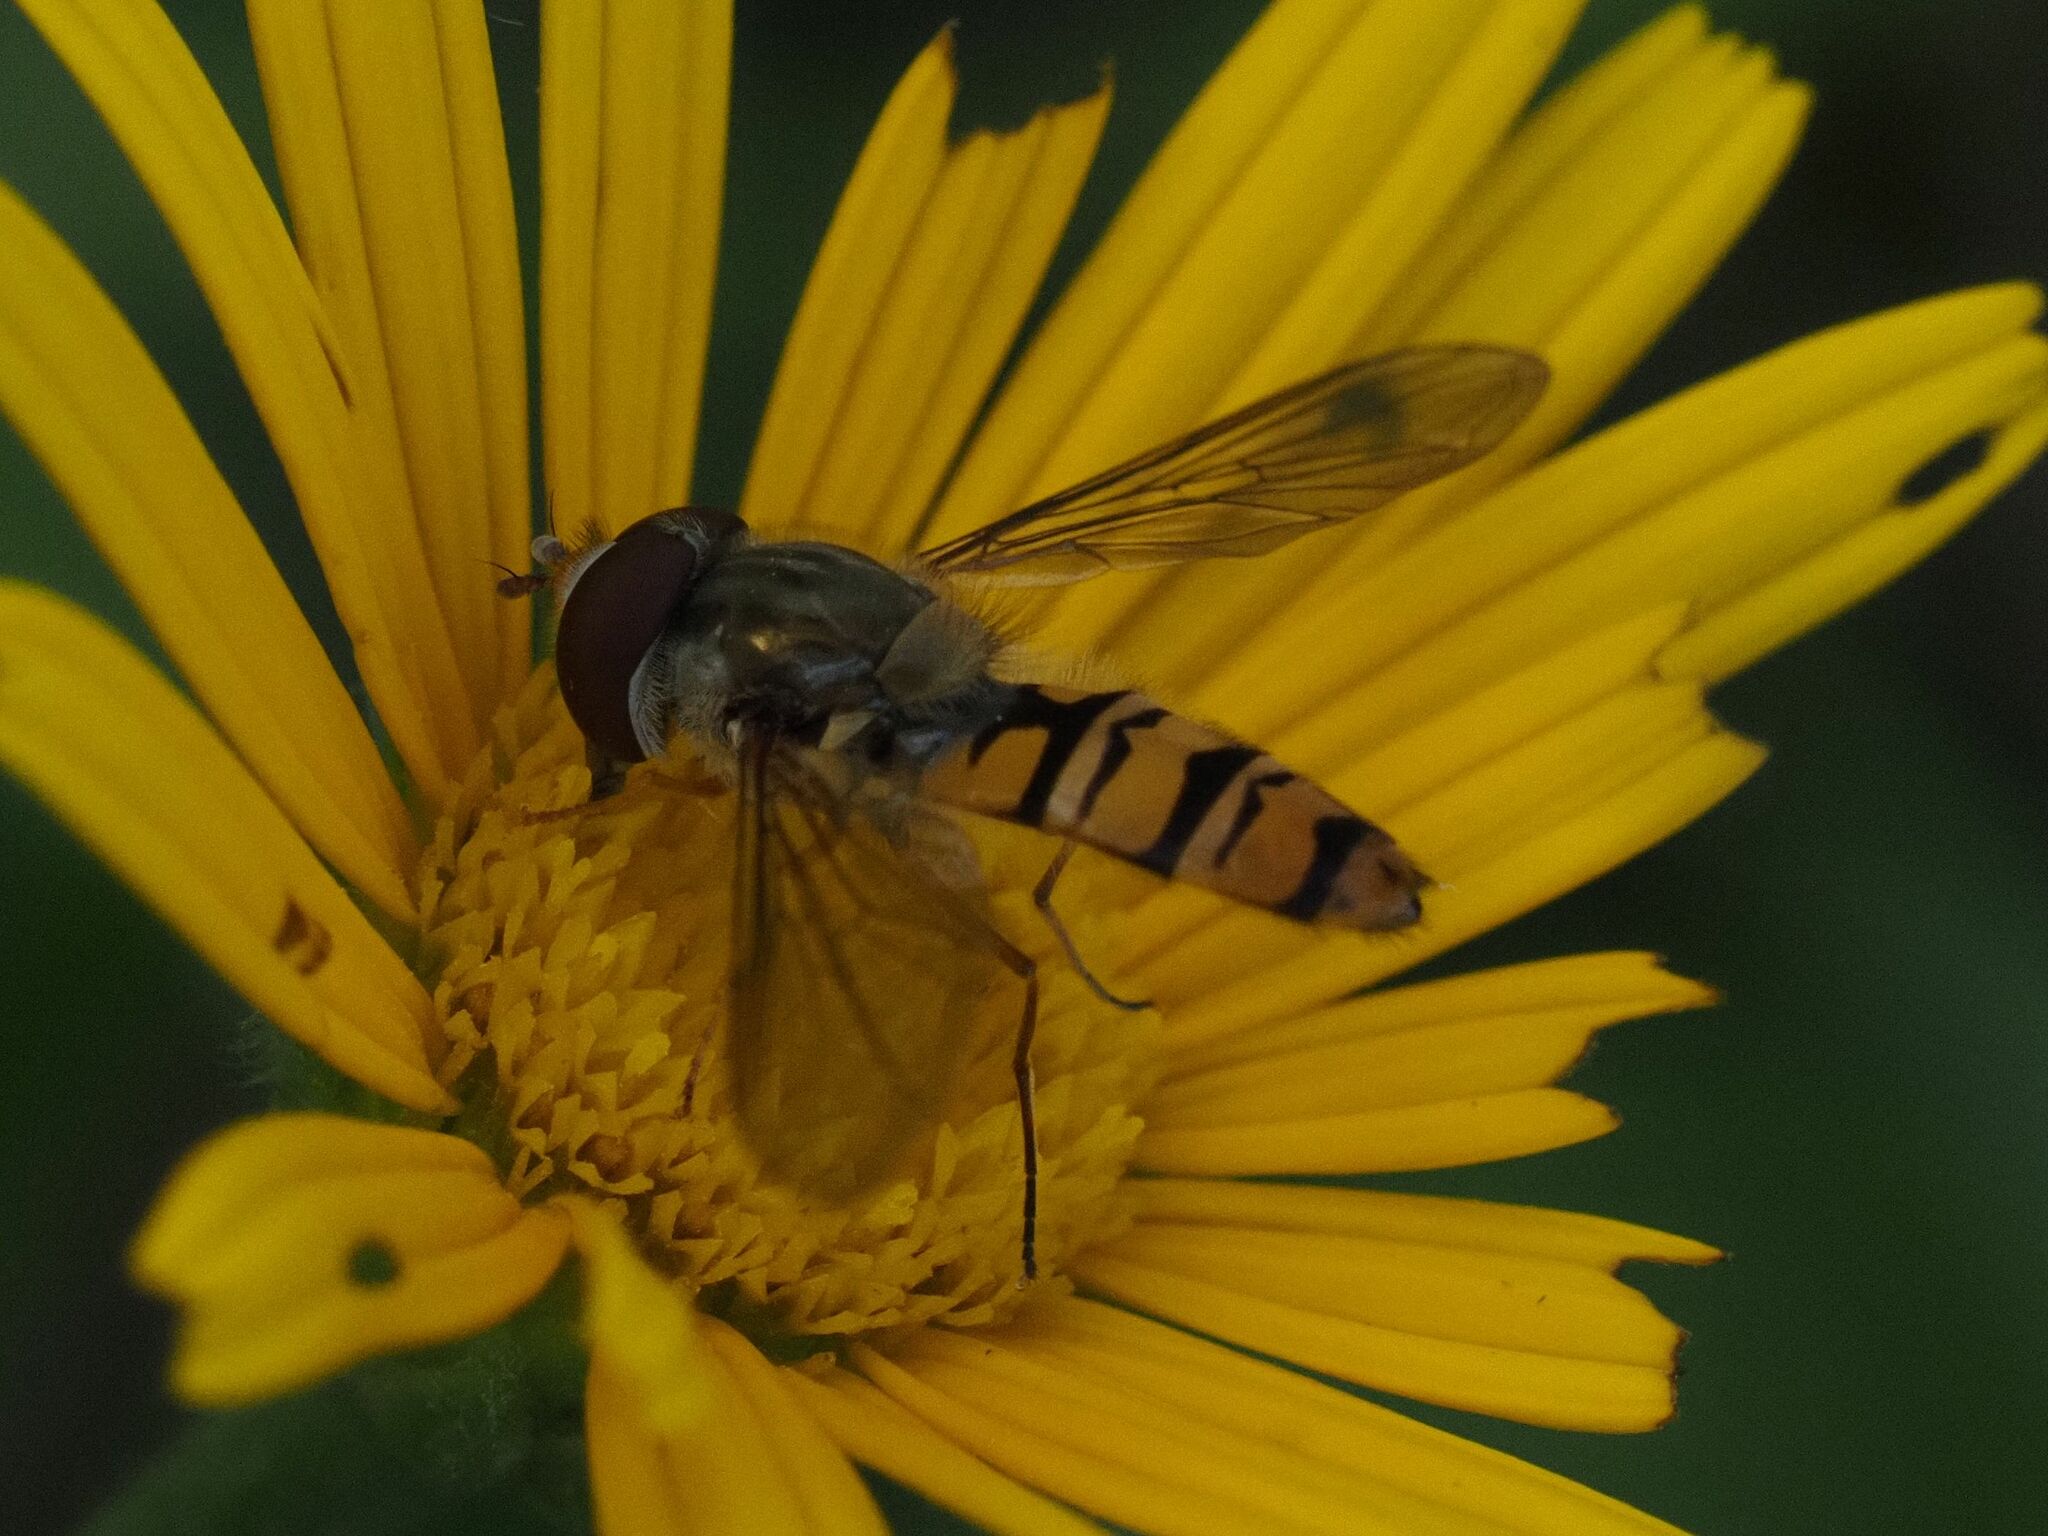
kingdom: Animalia
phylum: Arthropoda
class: Insecta
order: Diptera
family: Syrphidae
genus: Episyrphus
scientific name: Episyrphus balteatus
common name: Marmalade hoverfly
